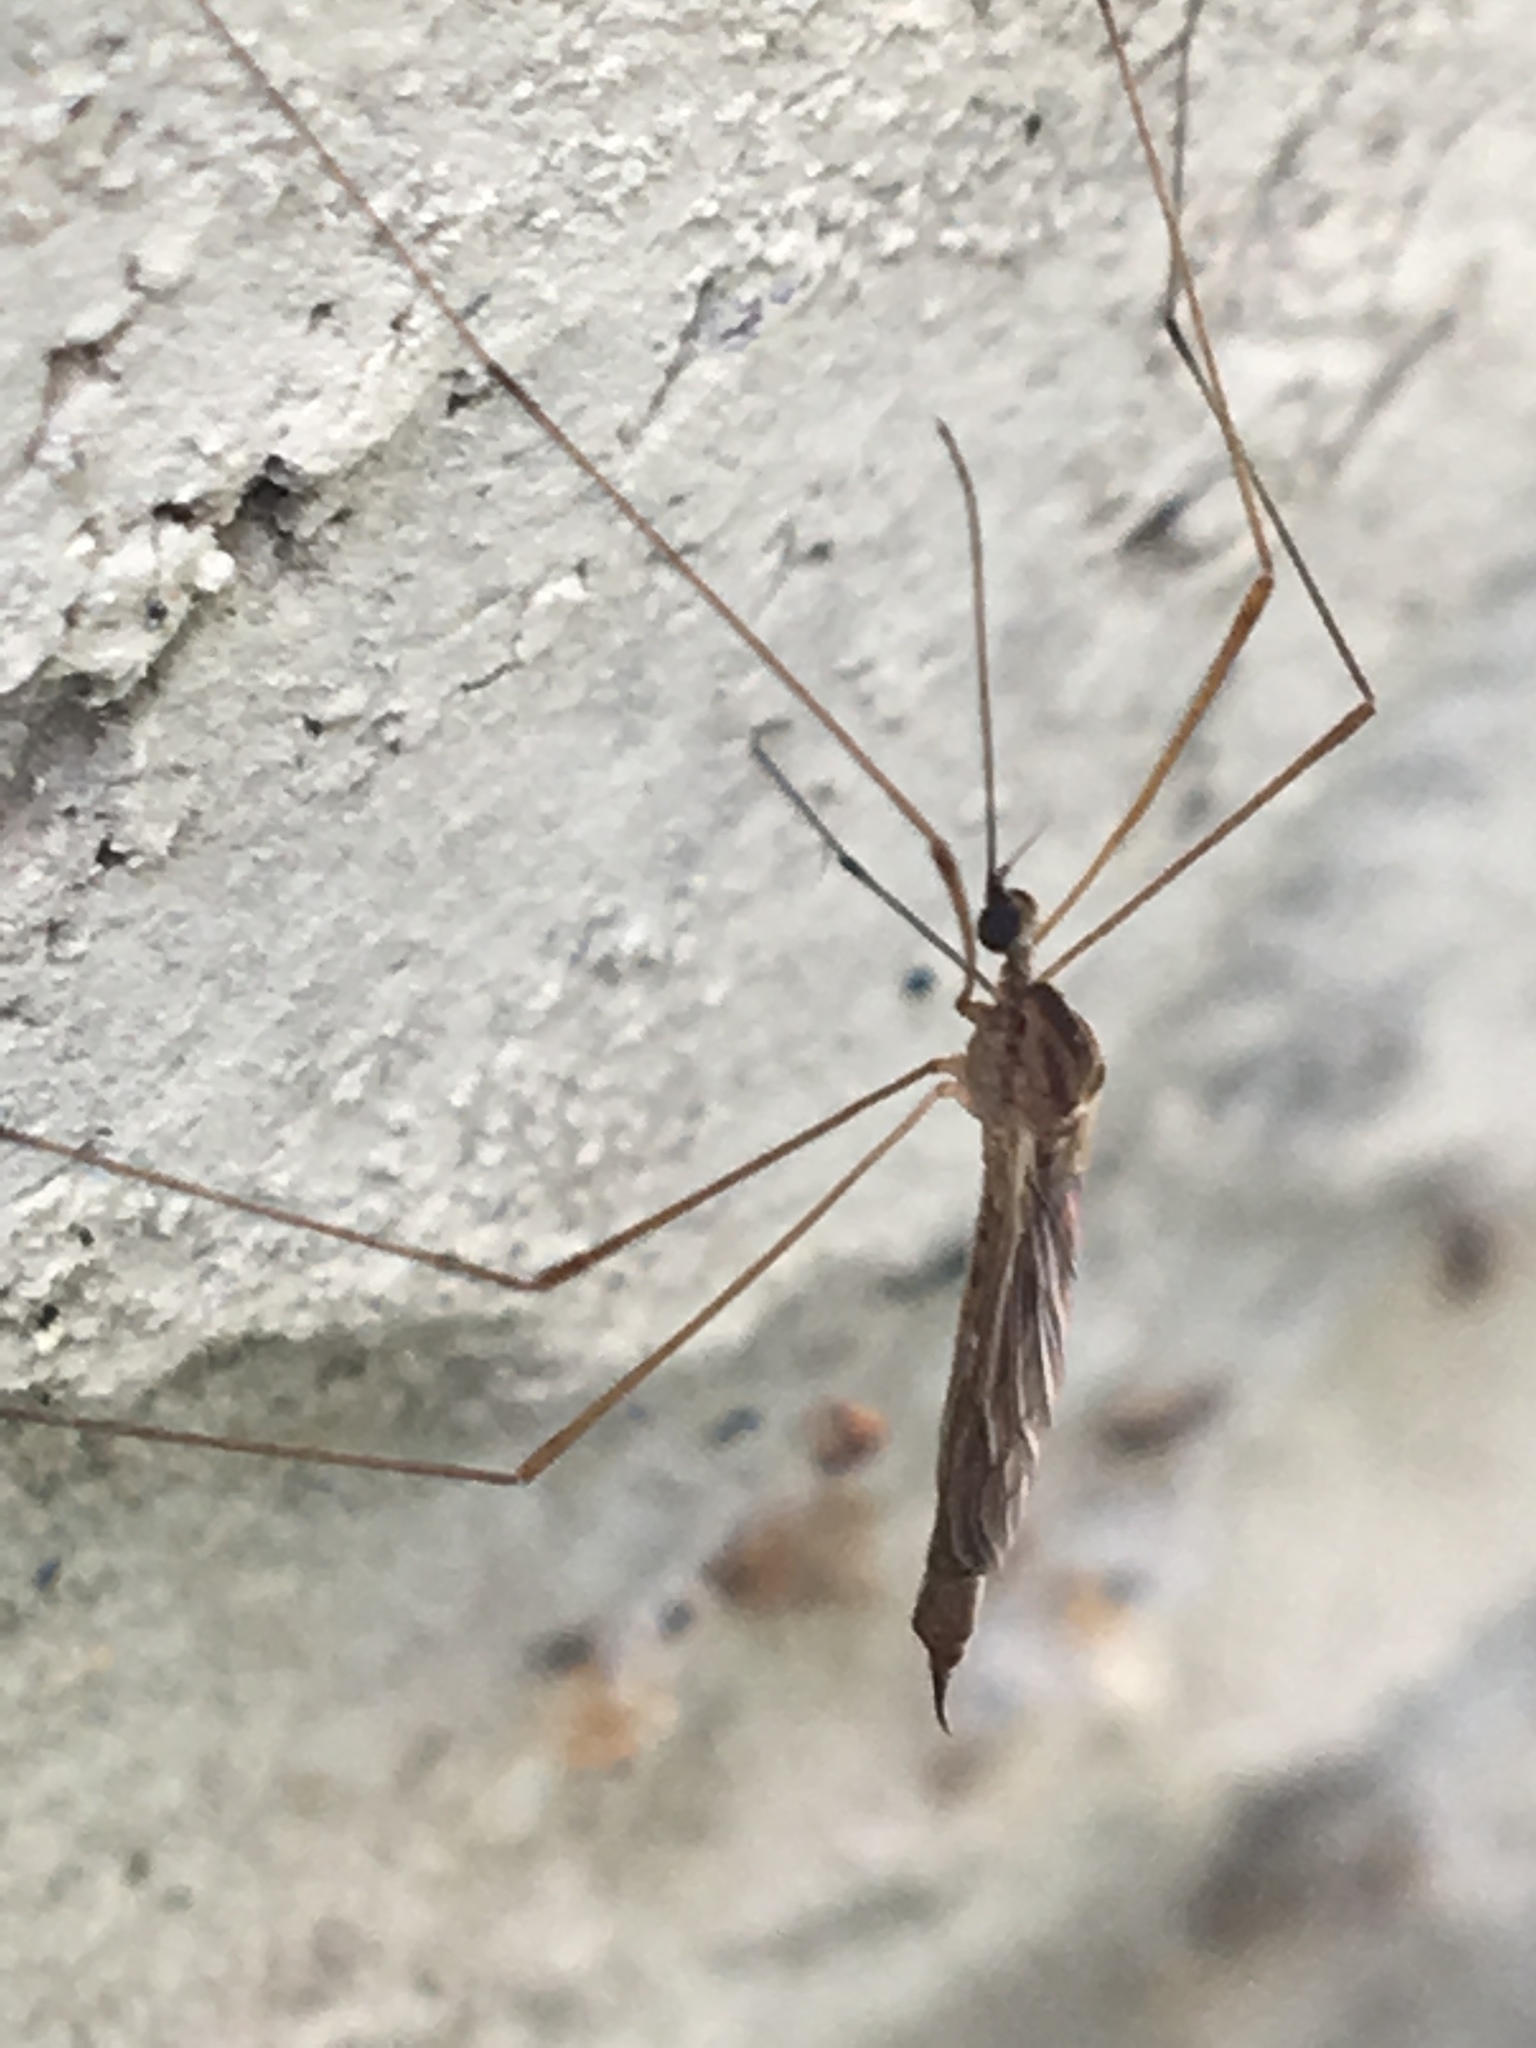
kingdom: Animalia
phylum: Arthropoda
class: Insecta
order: Diptera
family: Limoniidae
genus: Toxorhina
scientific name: Toxorhina magna
